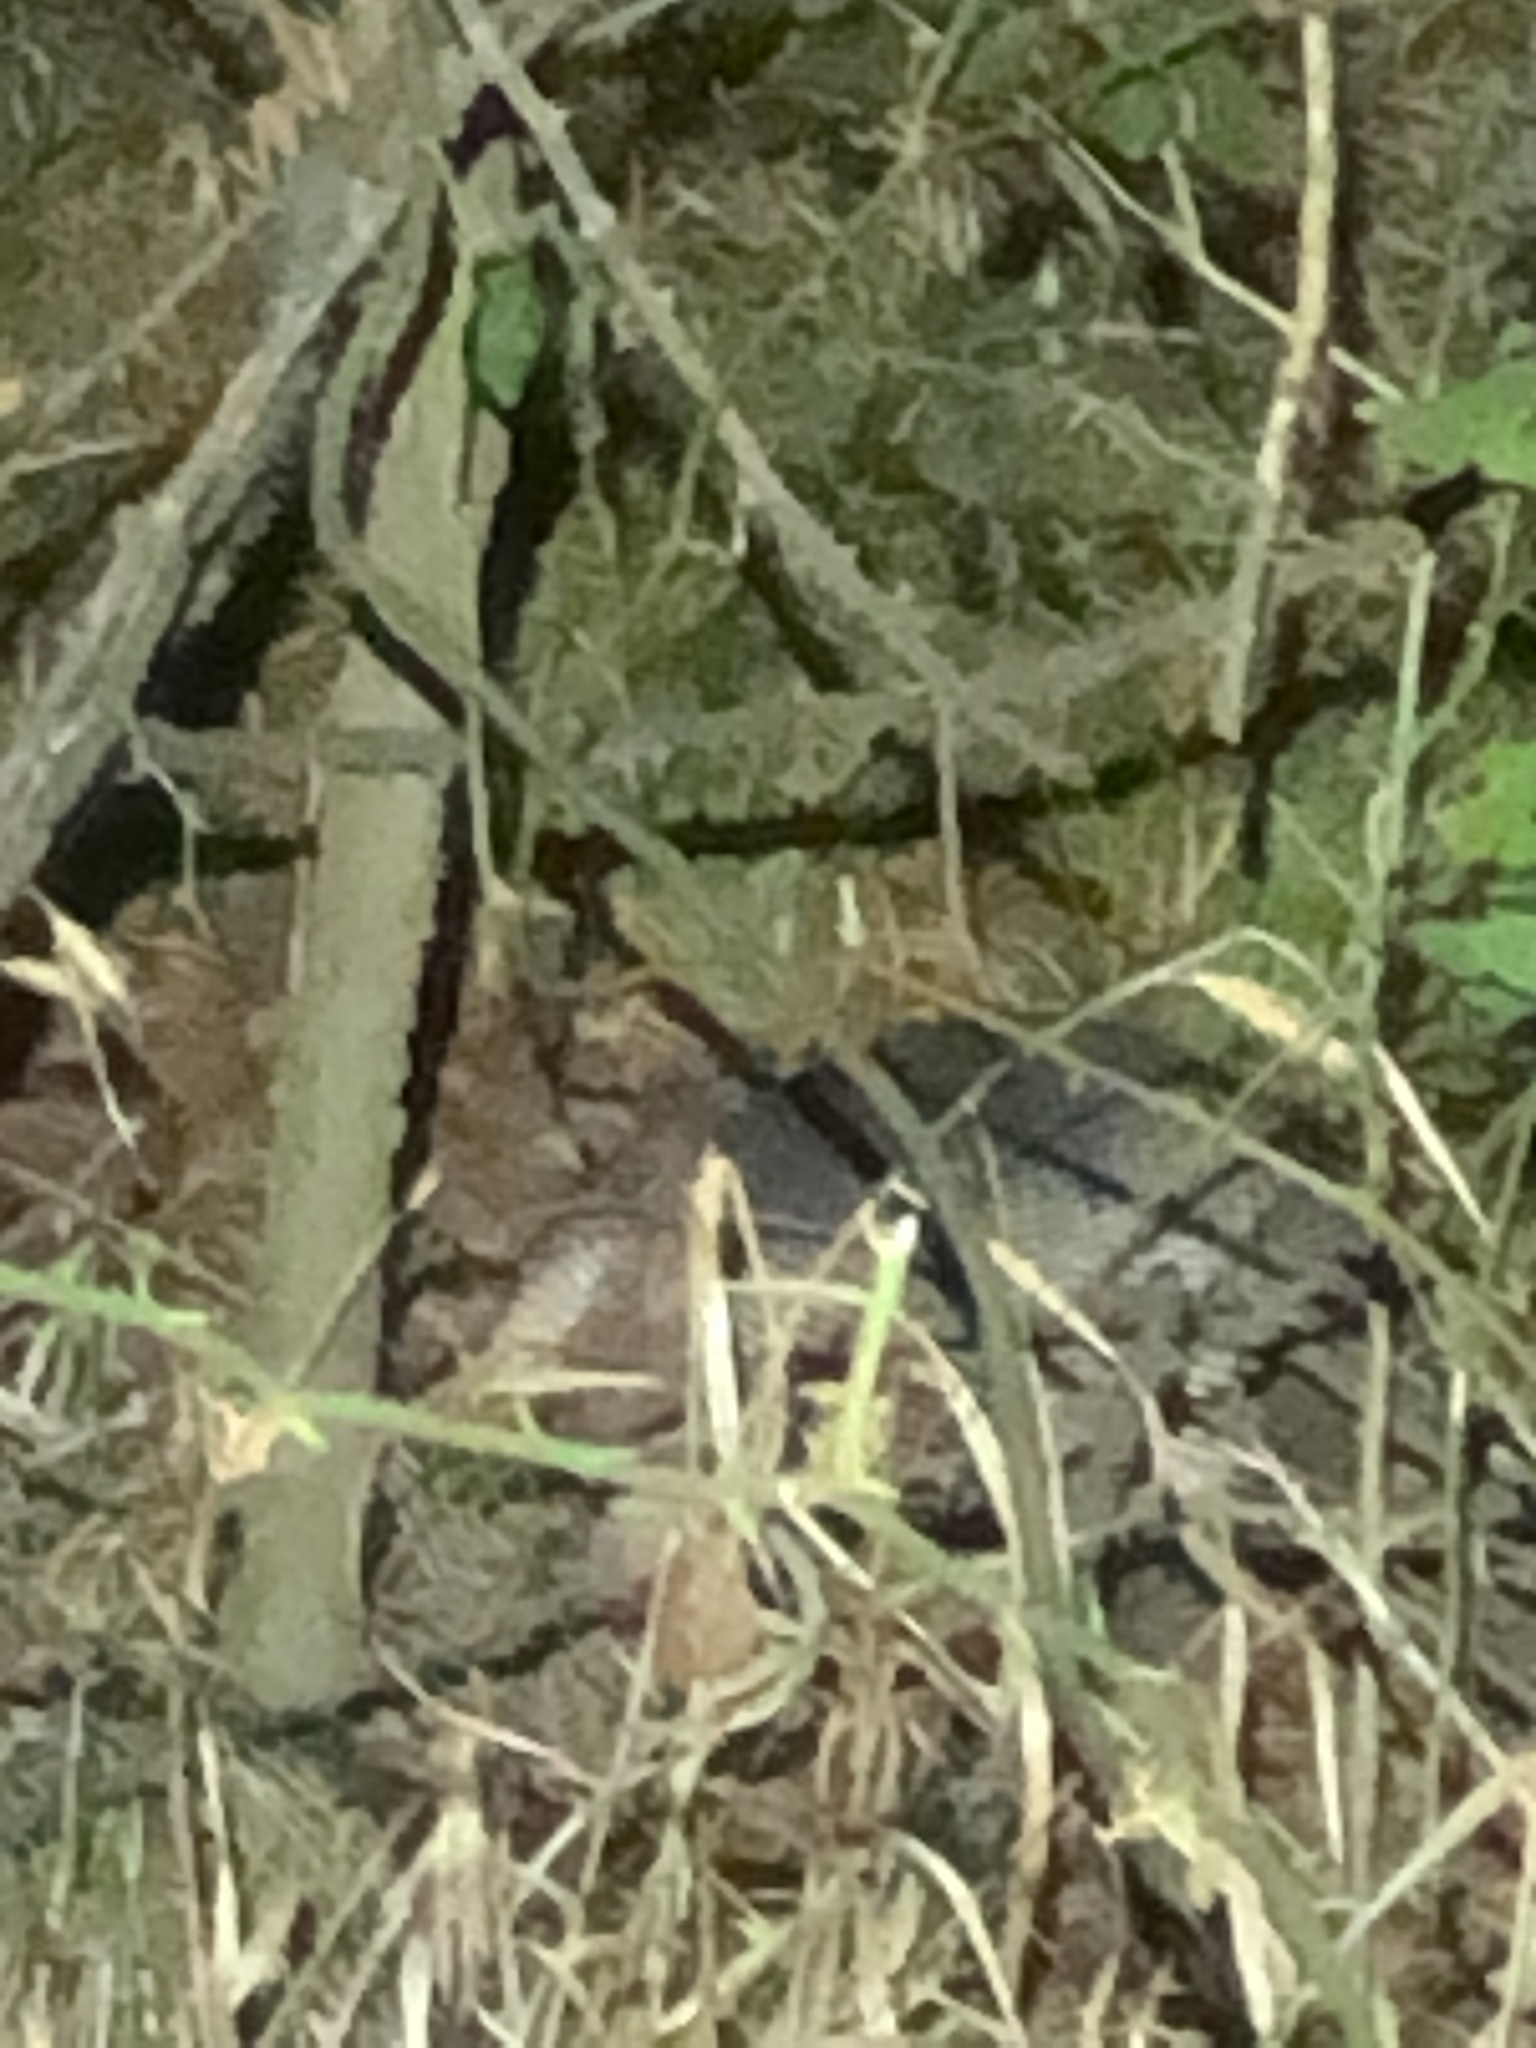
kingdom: Animalia
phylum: Chordata
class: Mammalia
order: Cingulata
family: Dasypodidae
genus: Dasypus
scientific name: Dasypus novemcinctus
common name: Nine-banded armadillo
